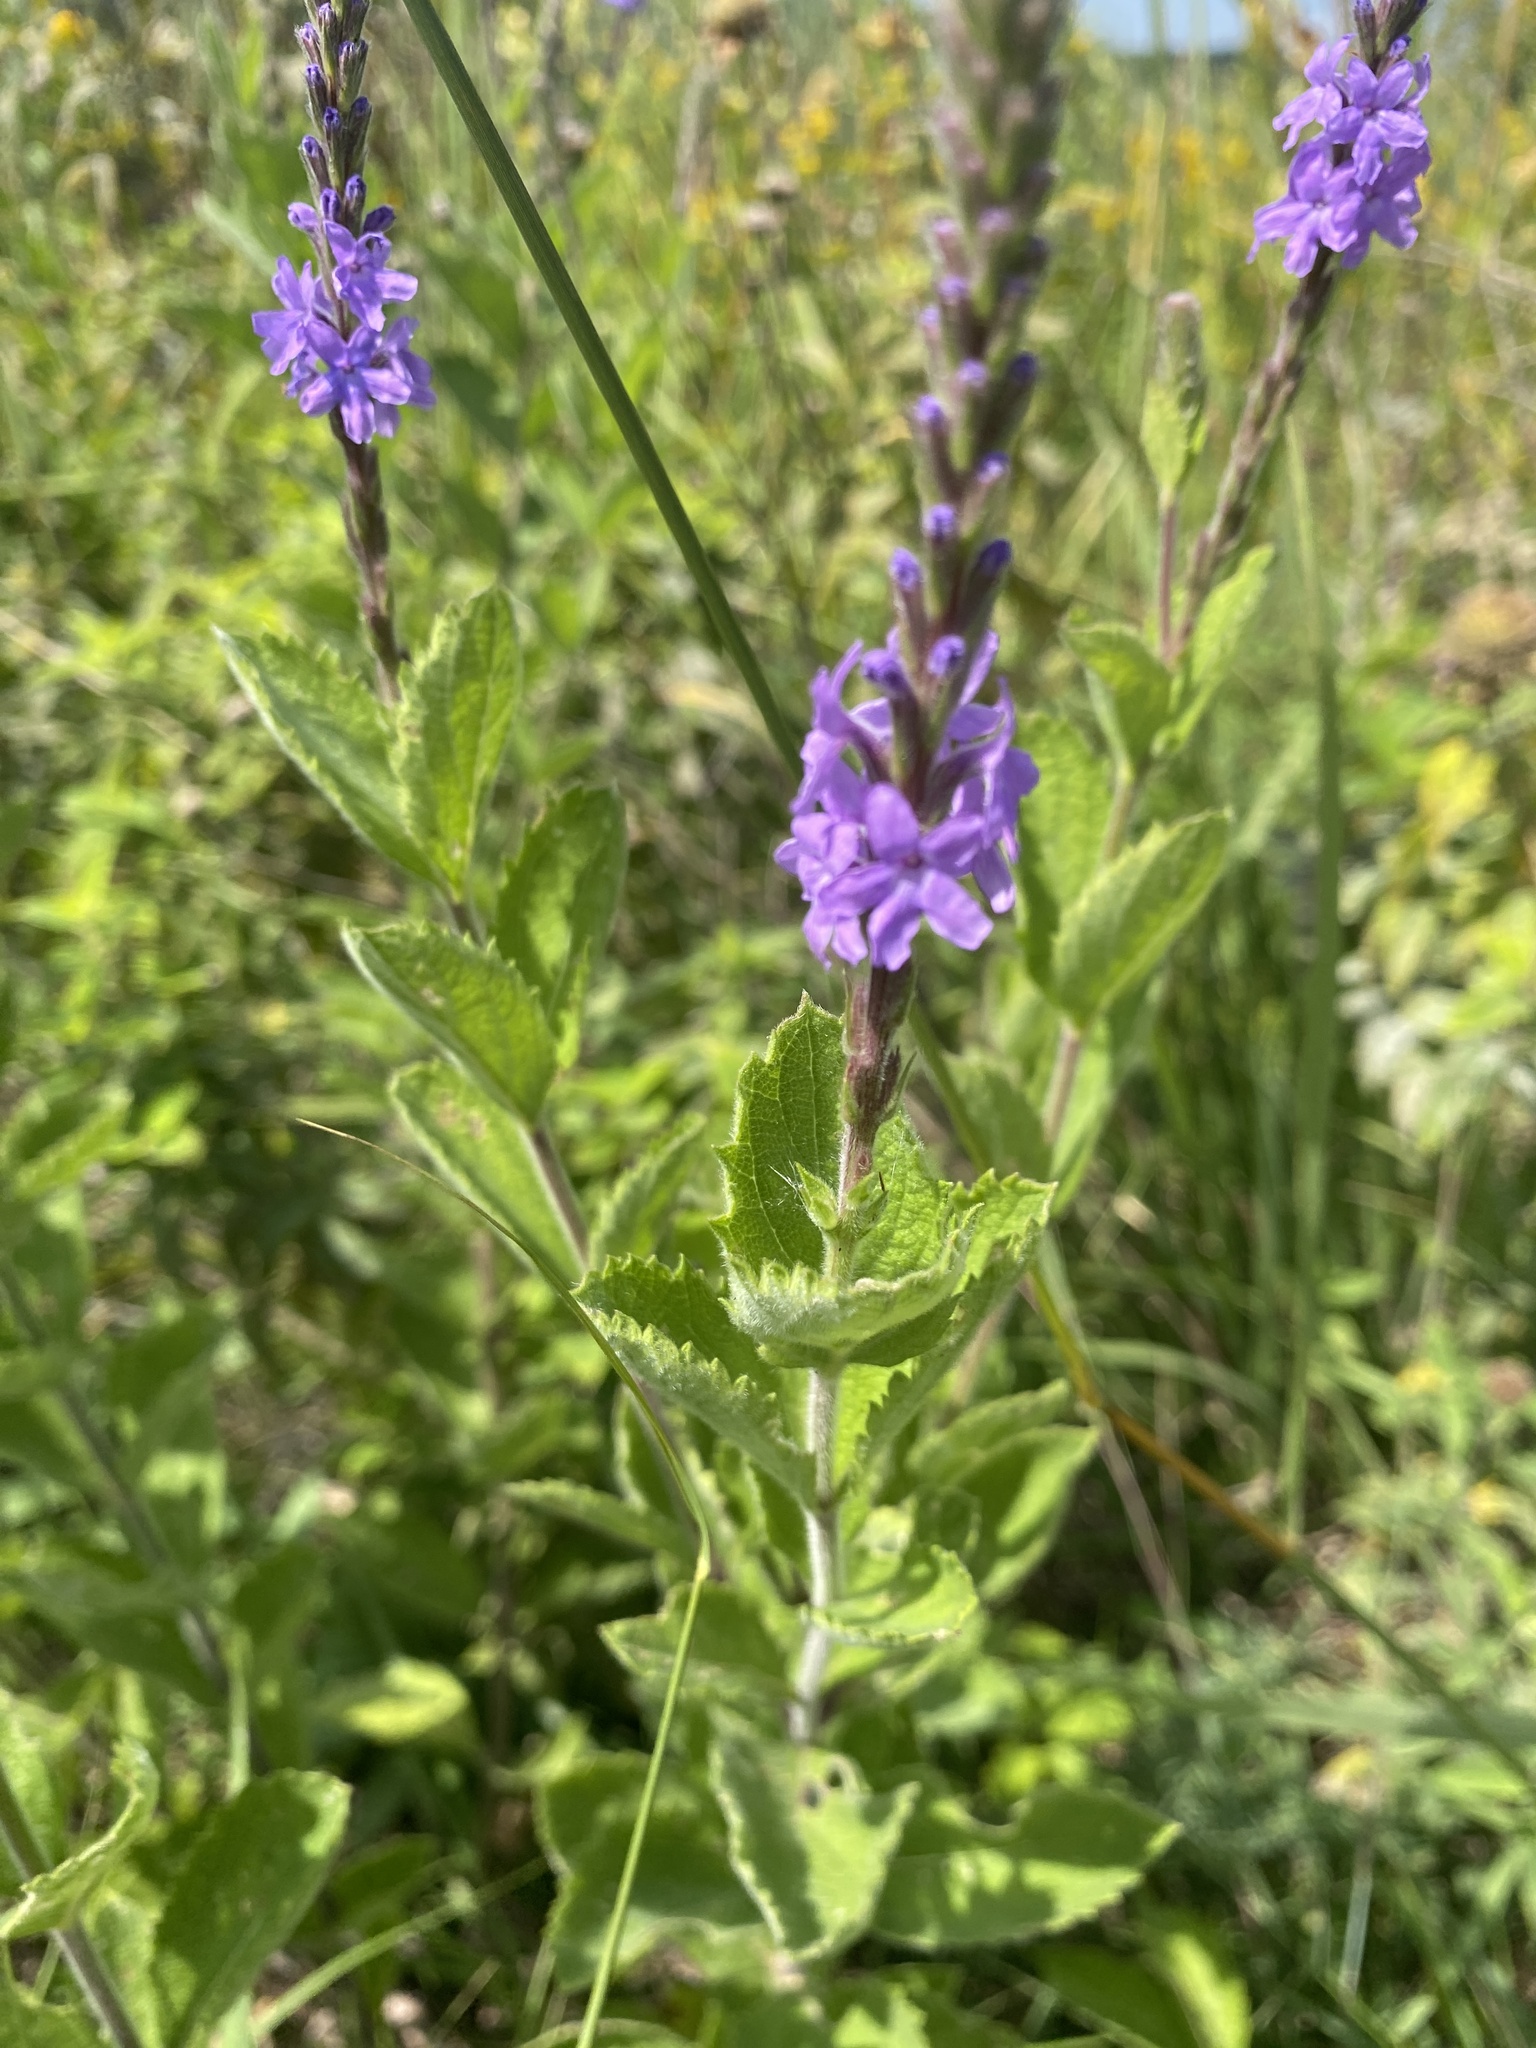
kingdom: Plantae
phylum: Tracheophyta
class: Magnoliopsida
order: Lamiales
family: Verbenaceae
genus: Verbena
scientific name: Verbena stricta
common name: Hoary vervain
